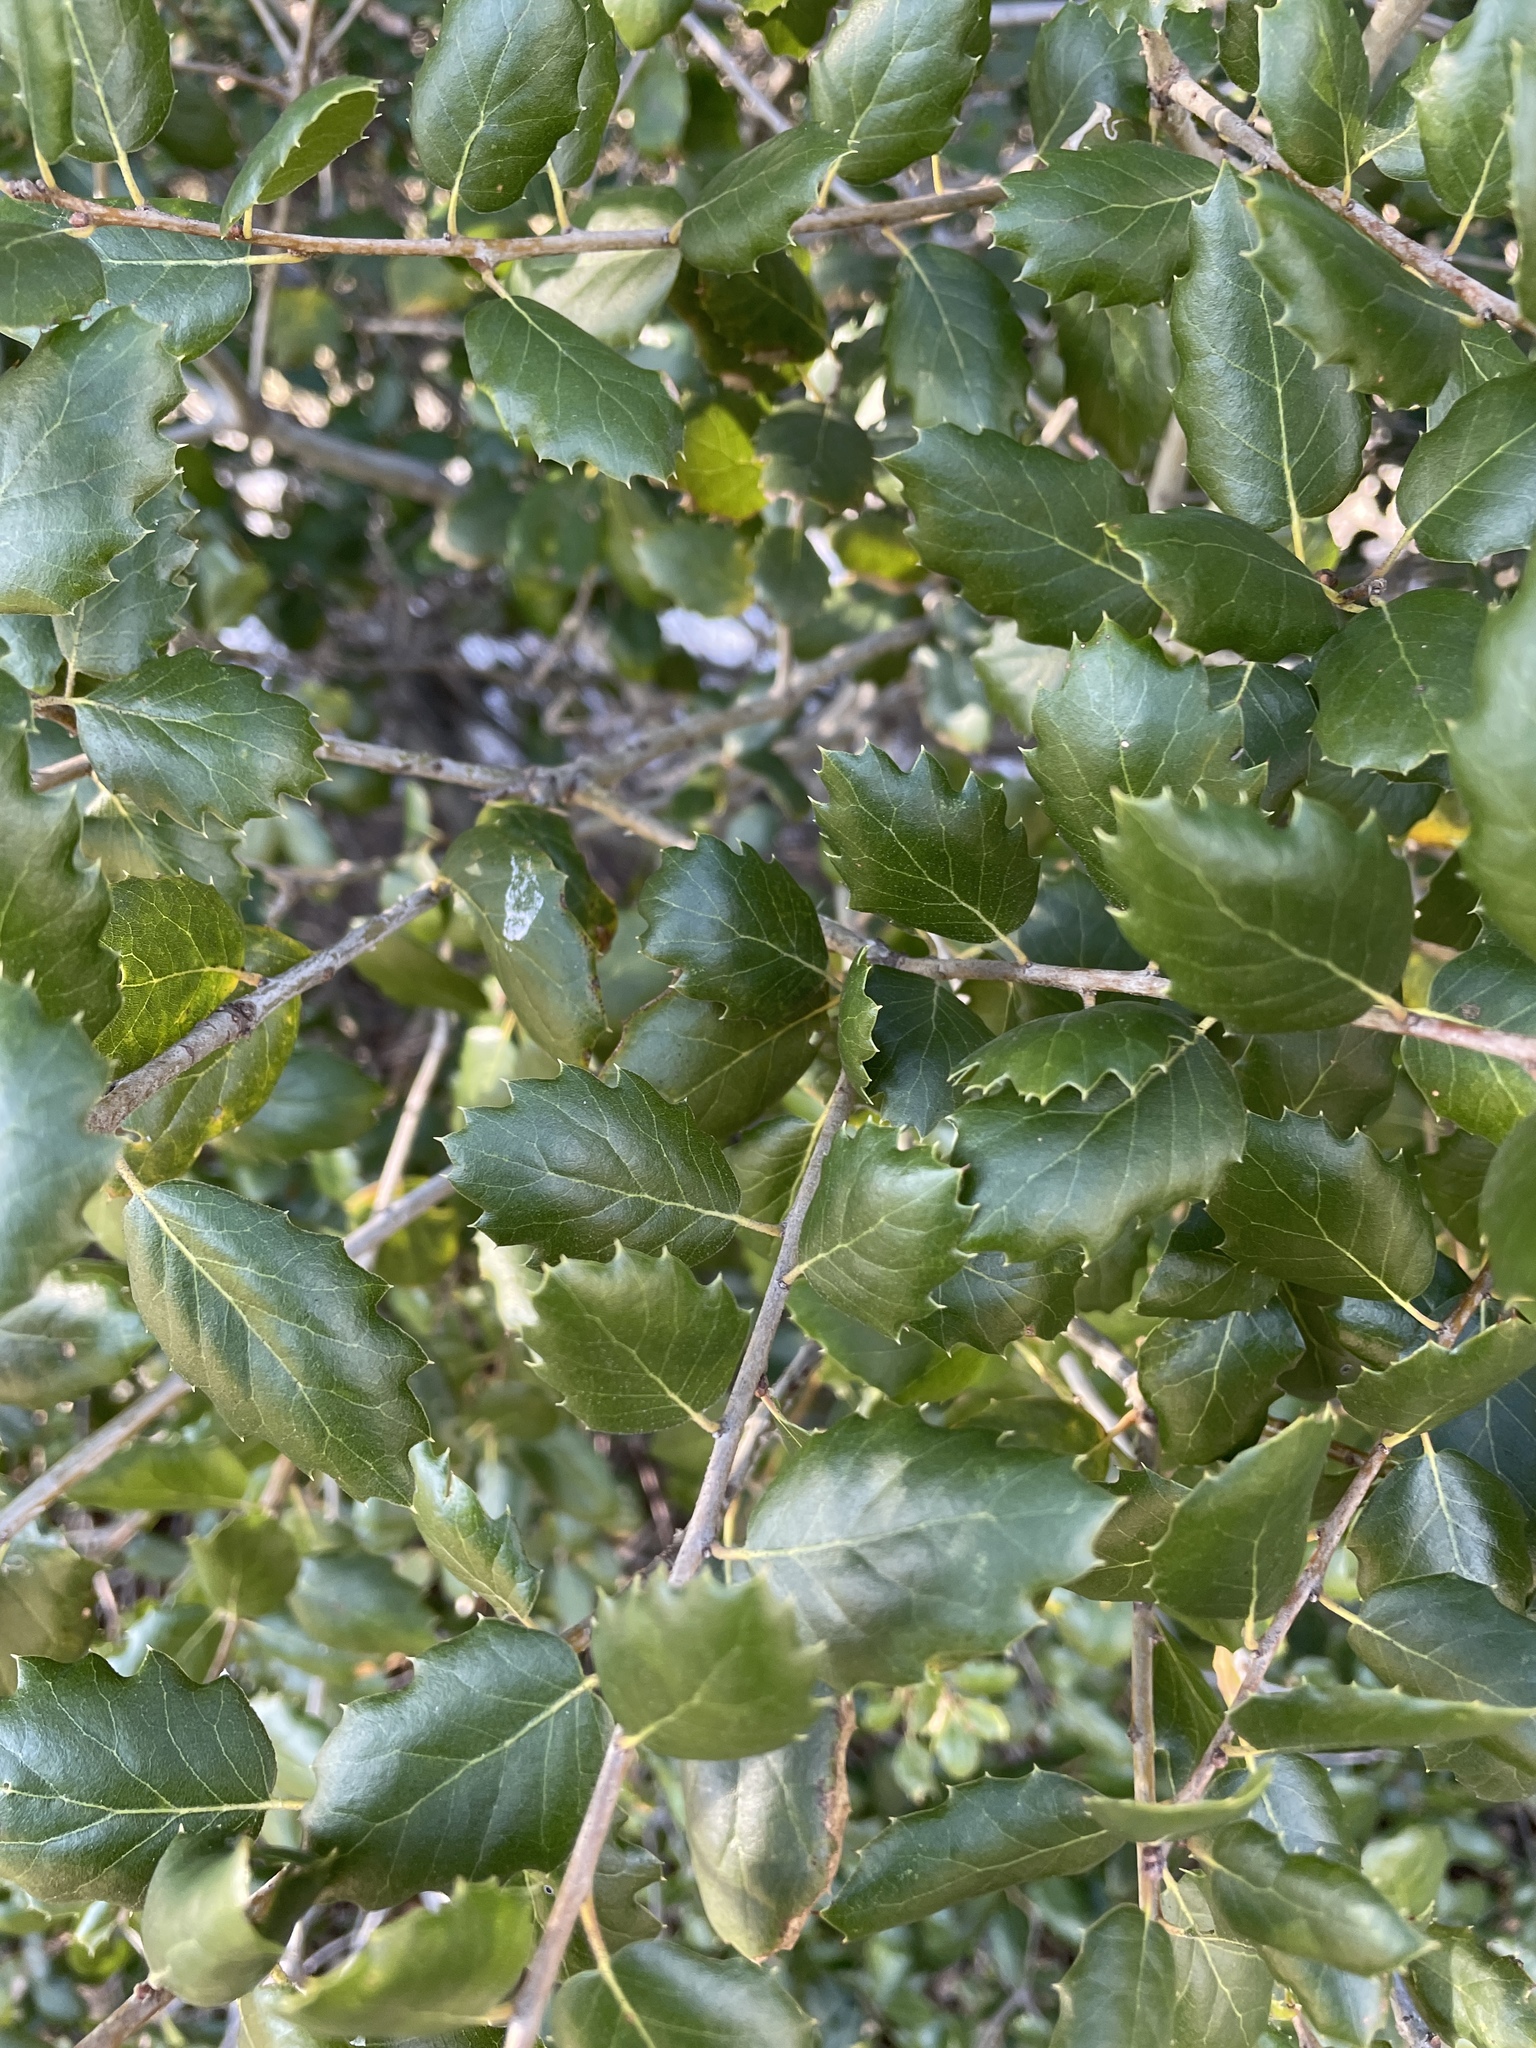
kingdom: Plantae
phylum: Tracheophyta
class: Magnoliopsida
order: Fagales
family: Fagaceae
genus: Quercus
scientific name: Quercus agrifolia
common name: California live oak
